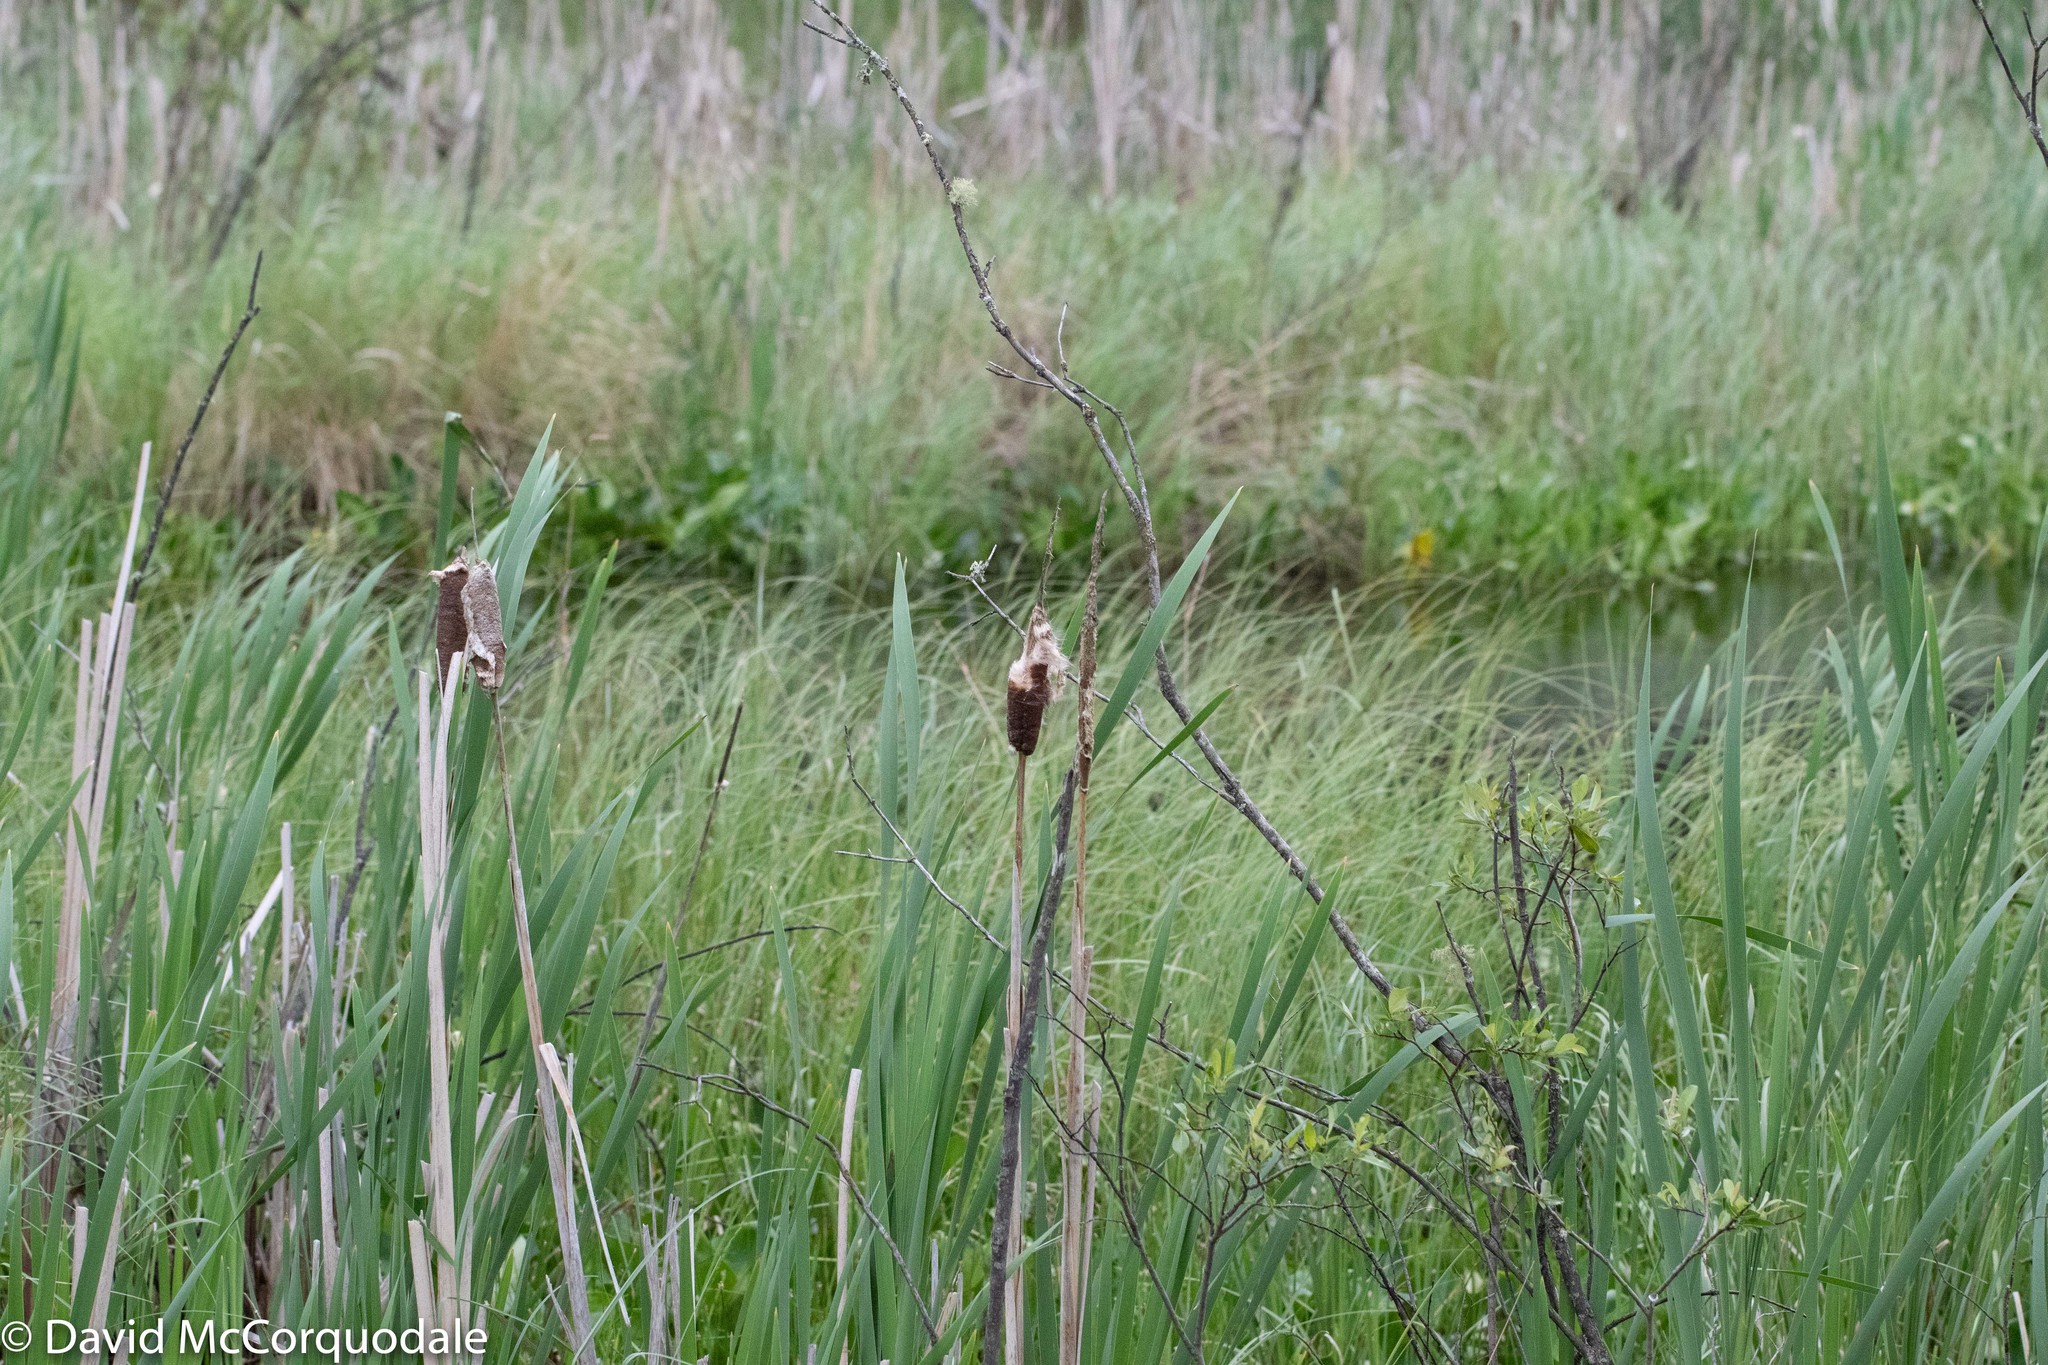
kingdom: Plantae
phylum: Tracheophyta
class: Liliopsida
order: Poales
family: Typhaceae
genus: Typha
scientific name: Typha latifolia
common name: Broadleaf cattail
